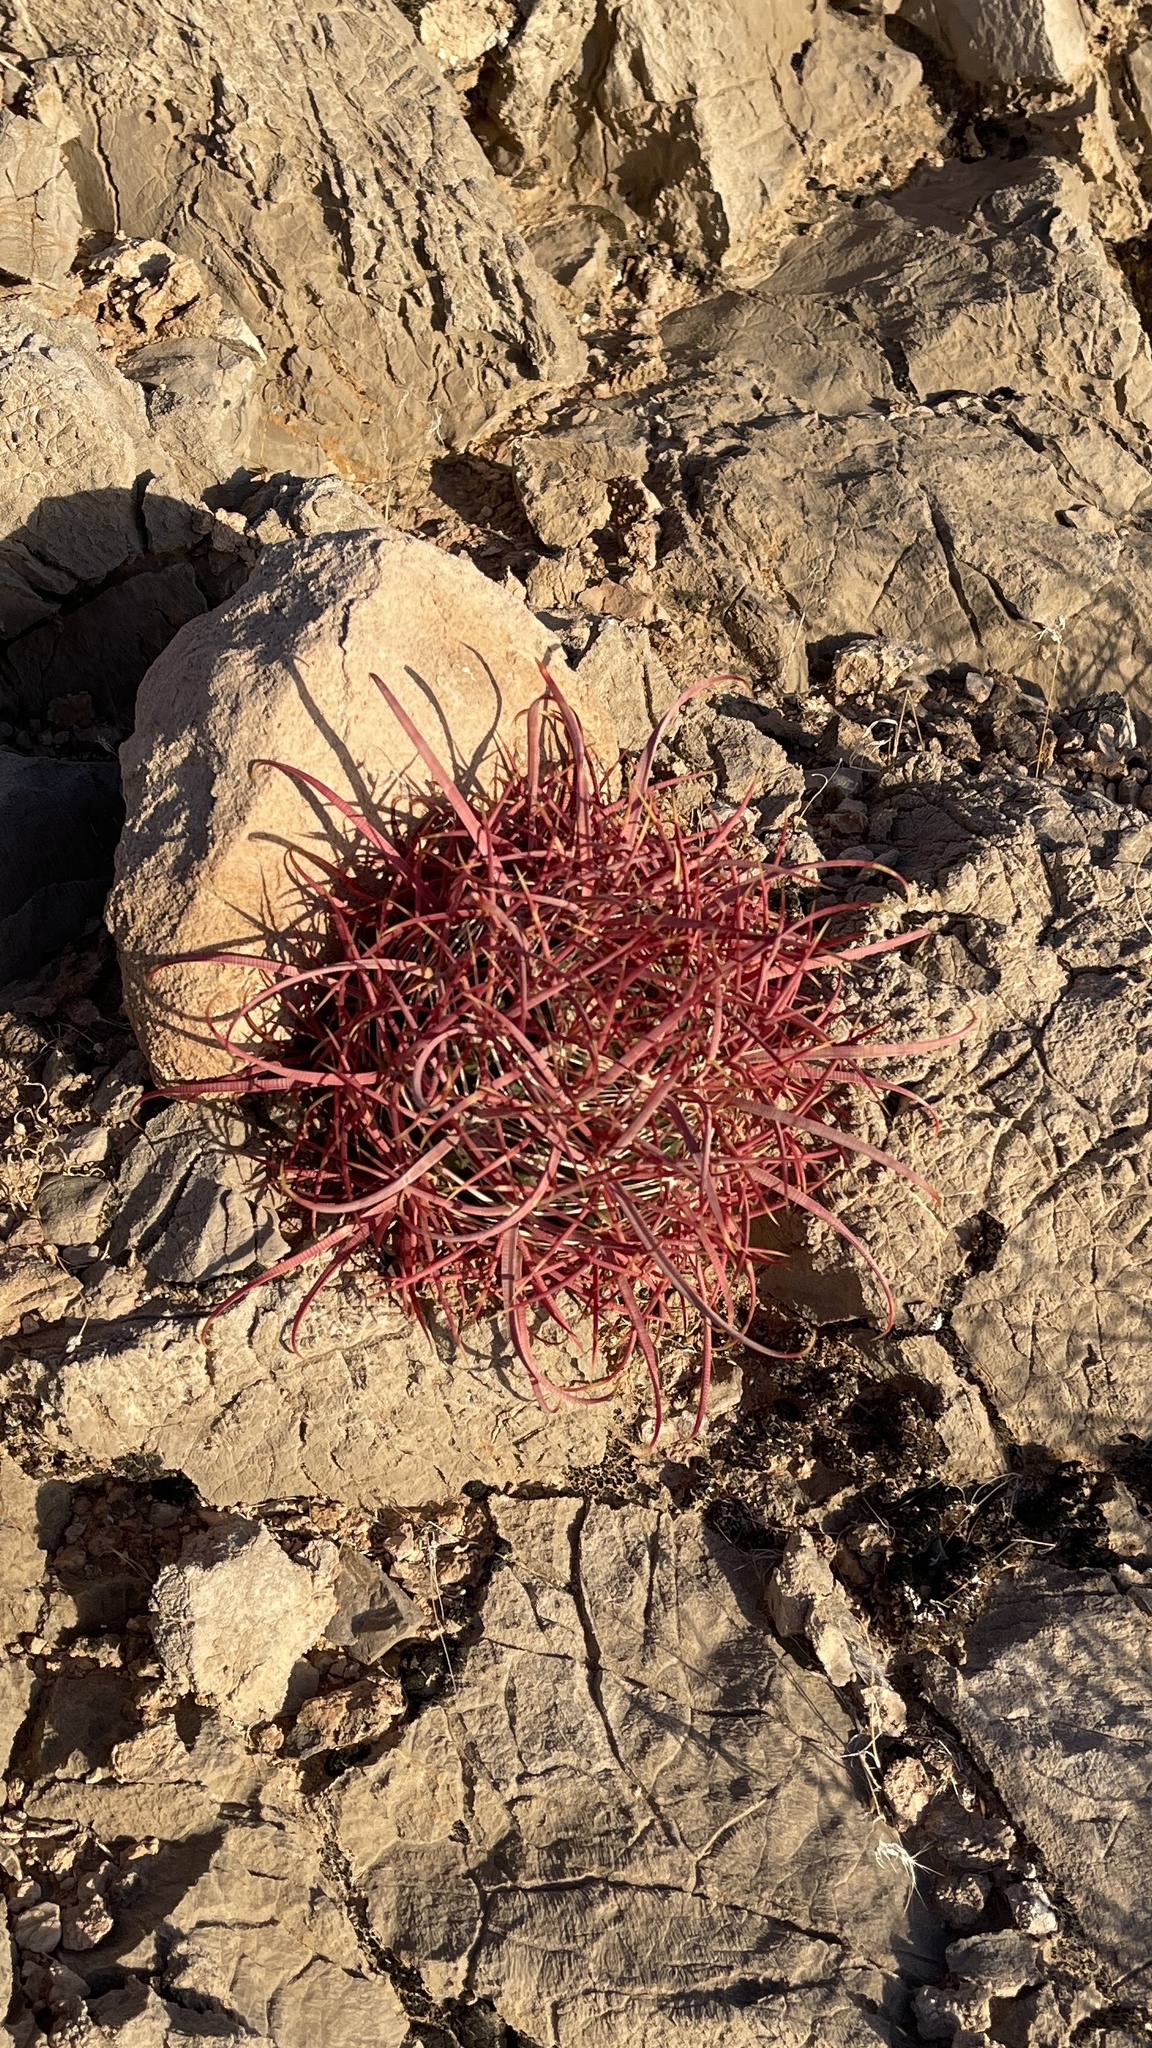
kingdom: Plantae
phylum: Tracheophyta
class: Magnoliopsida
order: Caryophyllales
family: Cactaceae
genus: Ferocactus
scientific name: Ferocactus cylindraceus
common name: California barrel cactus
